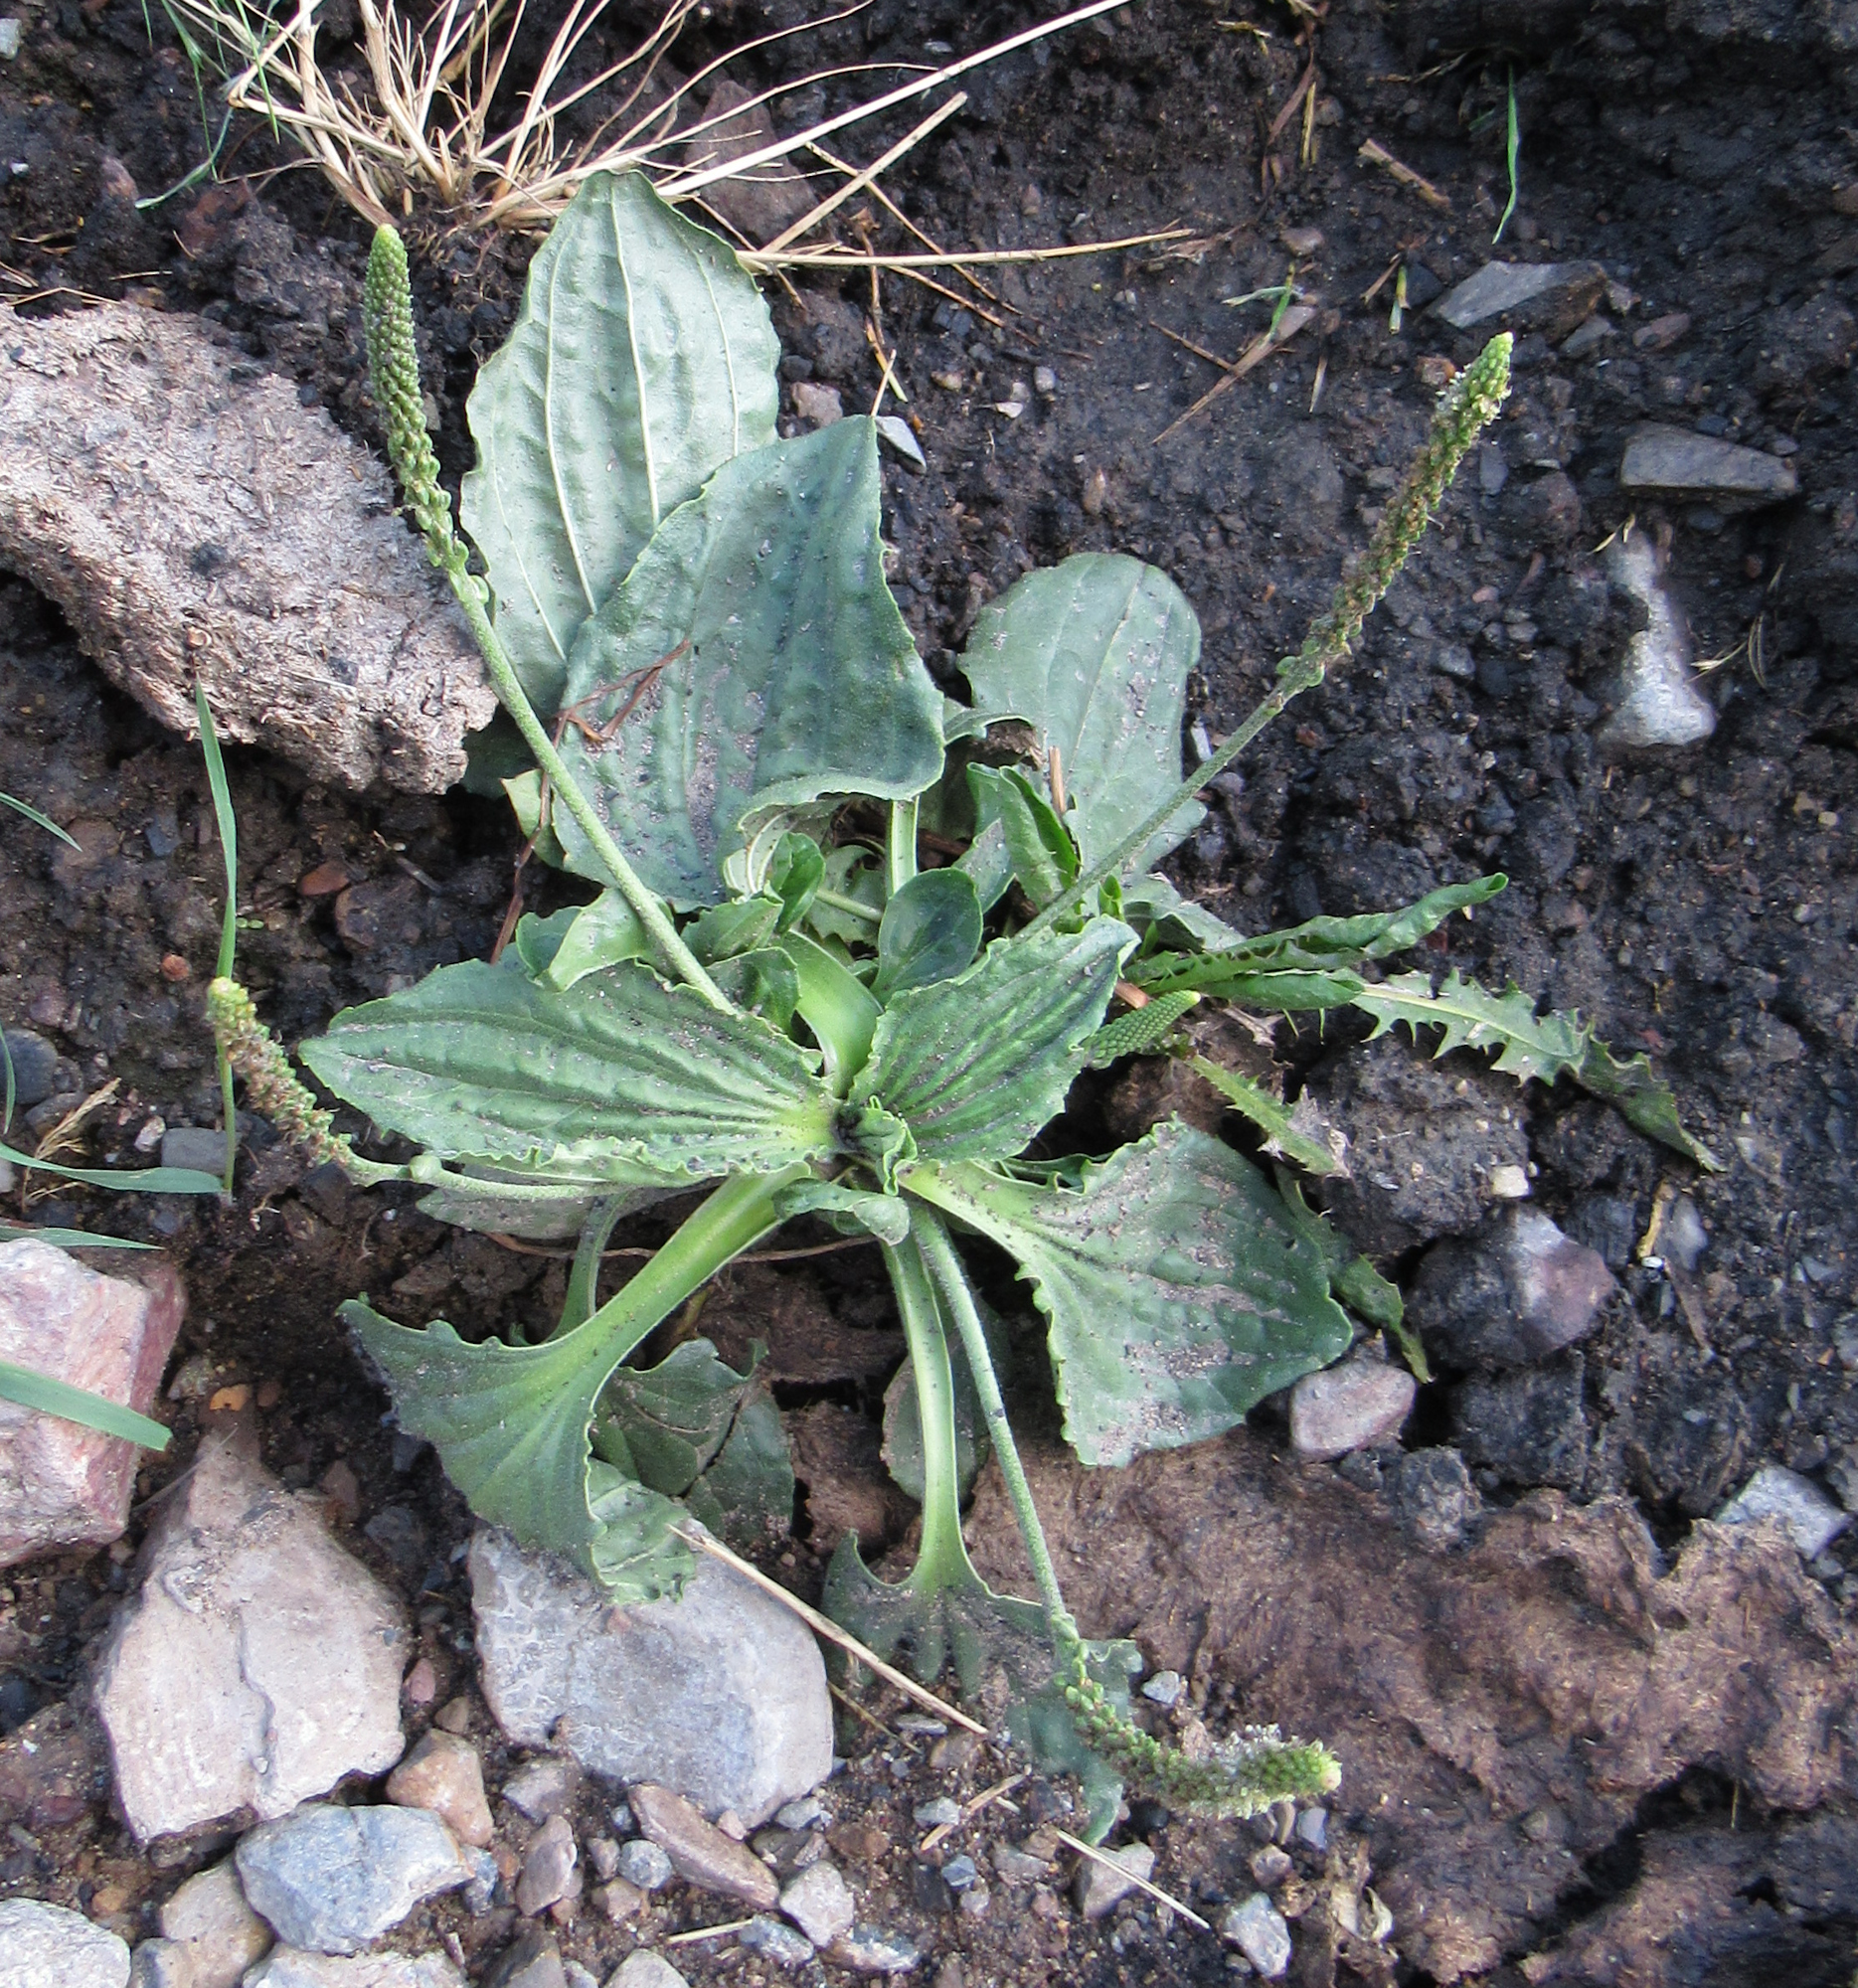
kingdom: Plantae
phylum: Tracheophyta
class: Magnoliopsida
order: Lamiales
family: Plantaginaceae
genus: Plantago
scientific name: Plantago major
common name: Common plantain
